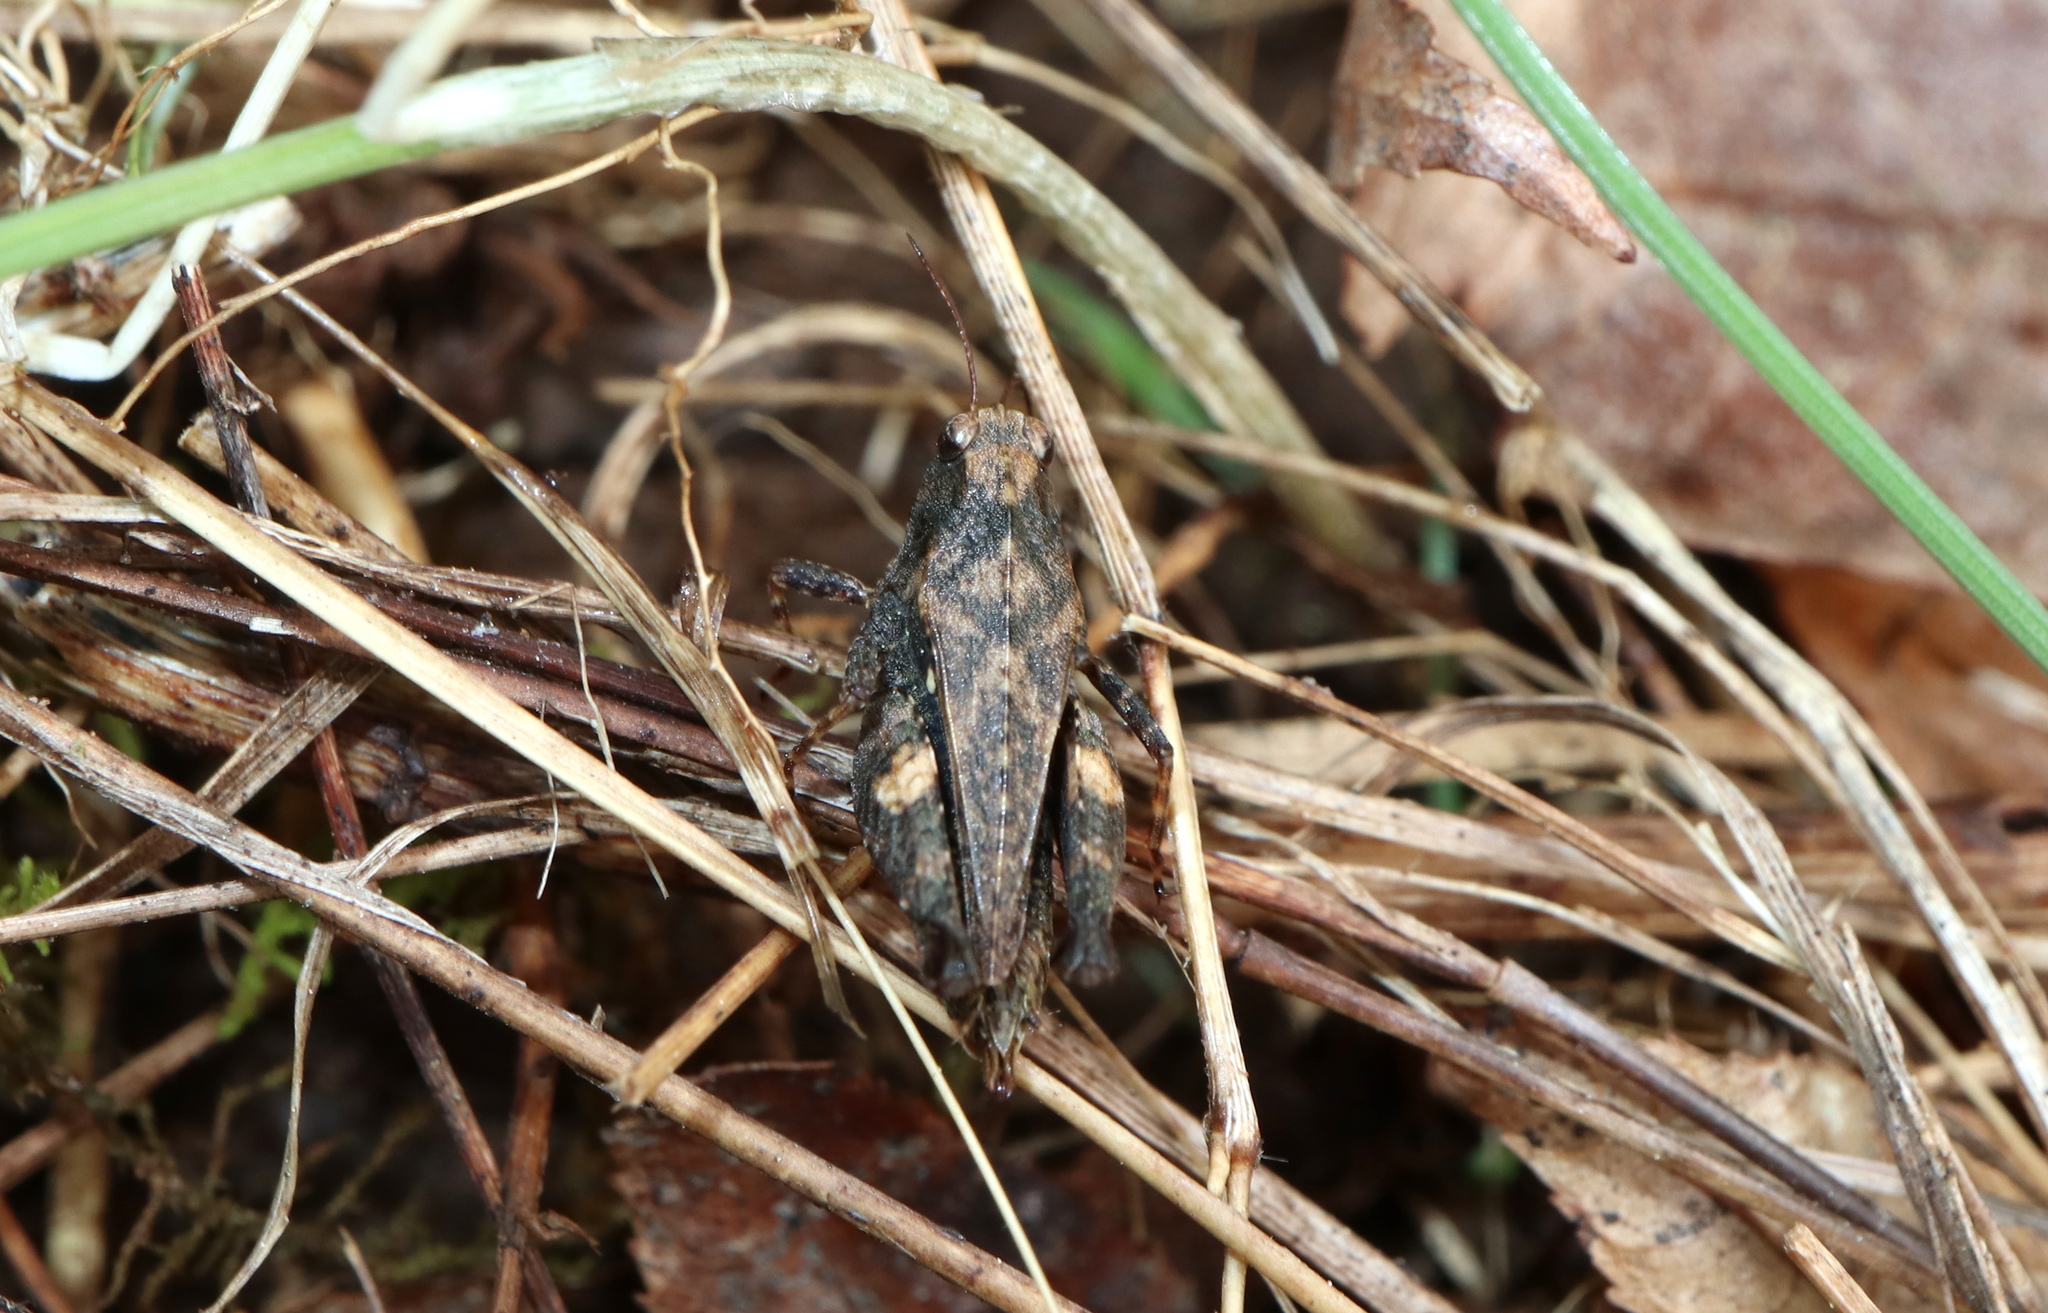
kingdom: Animalia
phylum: Arthropoda
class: Insecta
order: Orthoptera
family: Tetrigidae
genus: Tettigidea
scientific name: Tettigidea laterale
